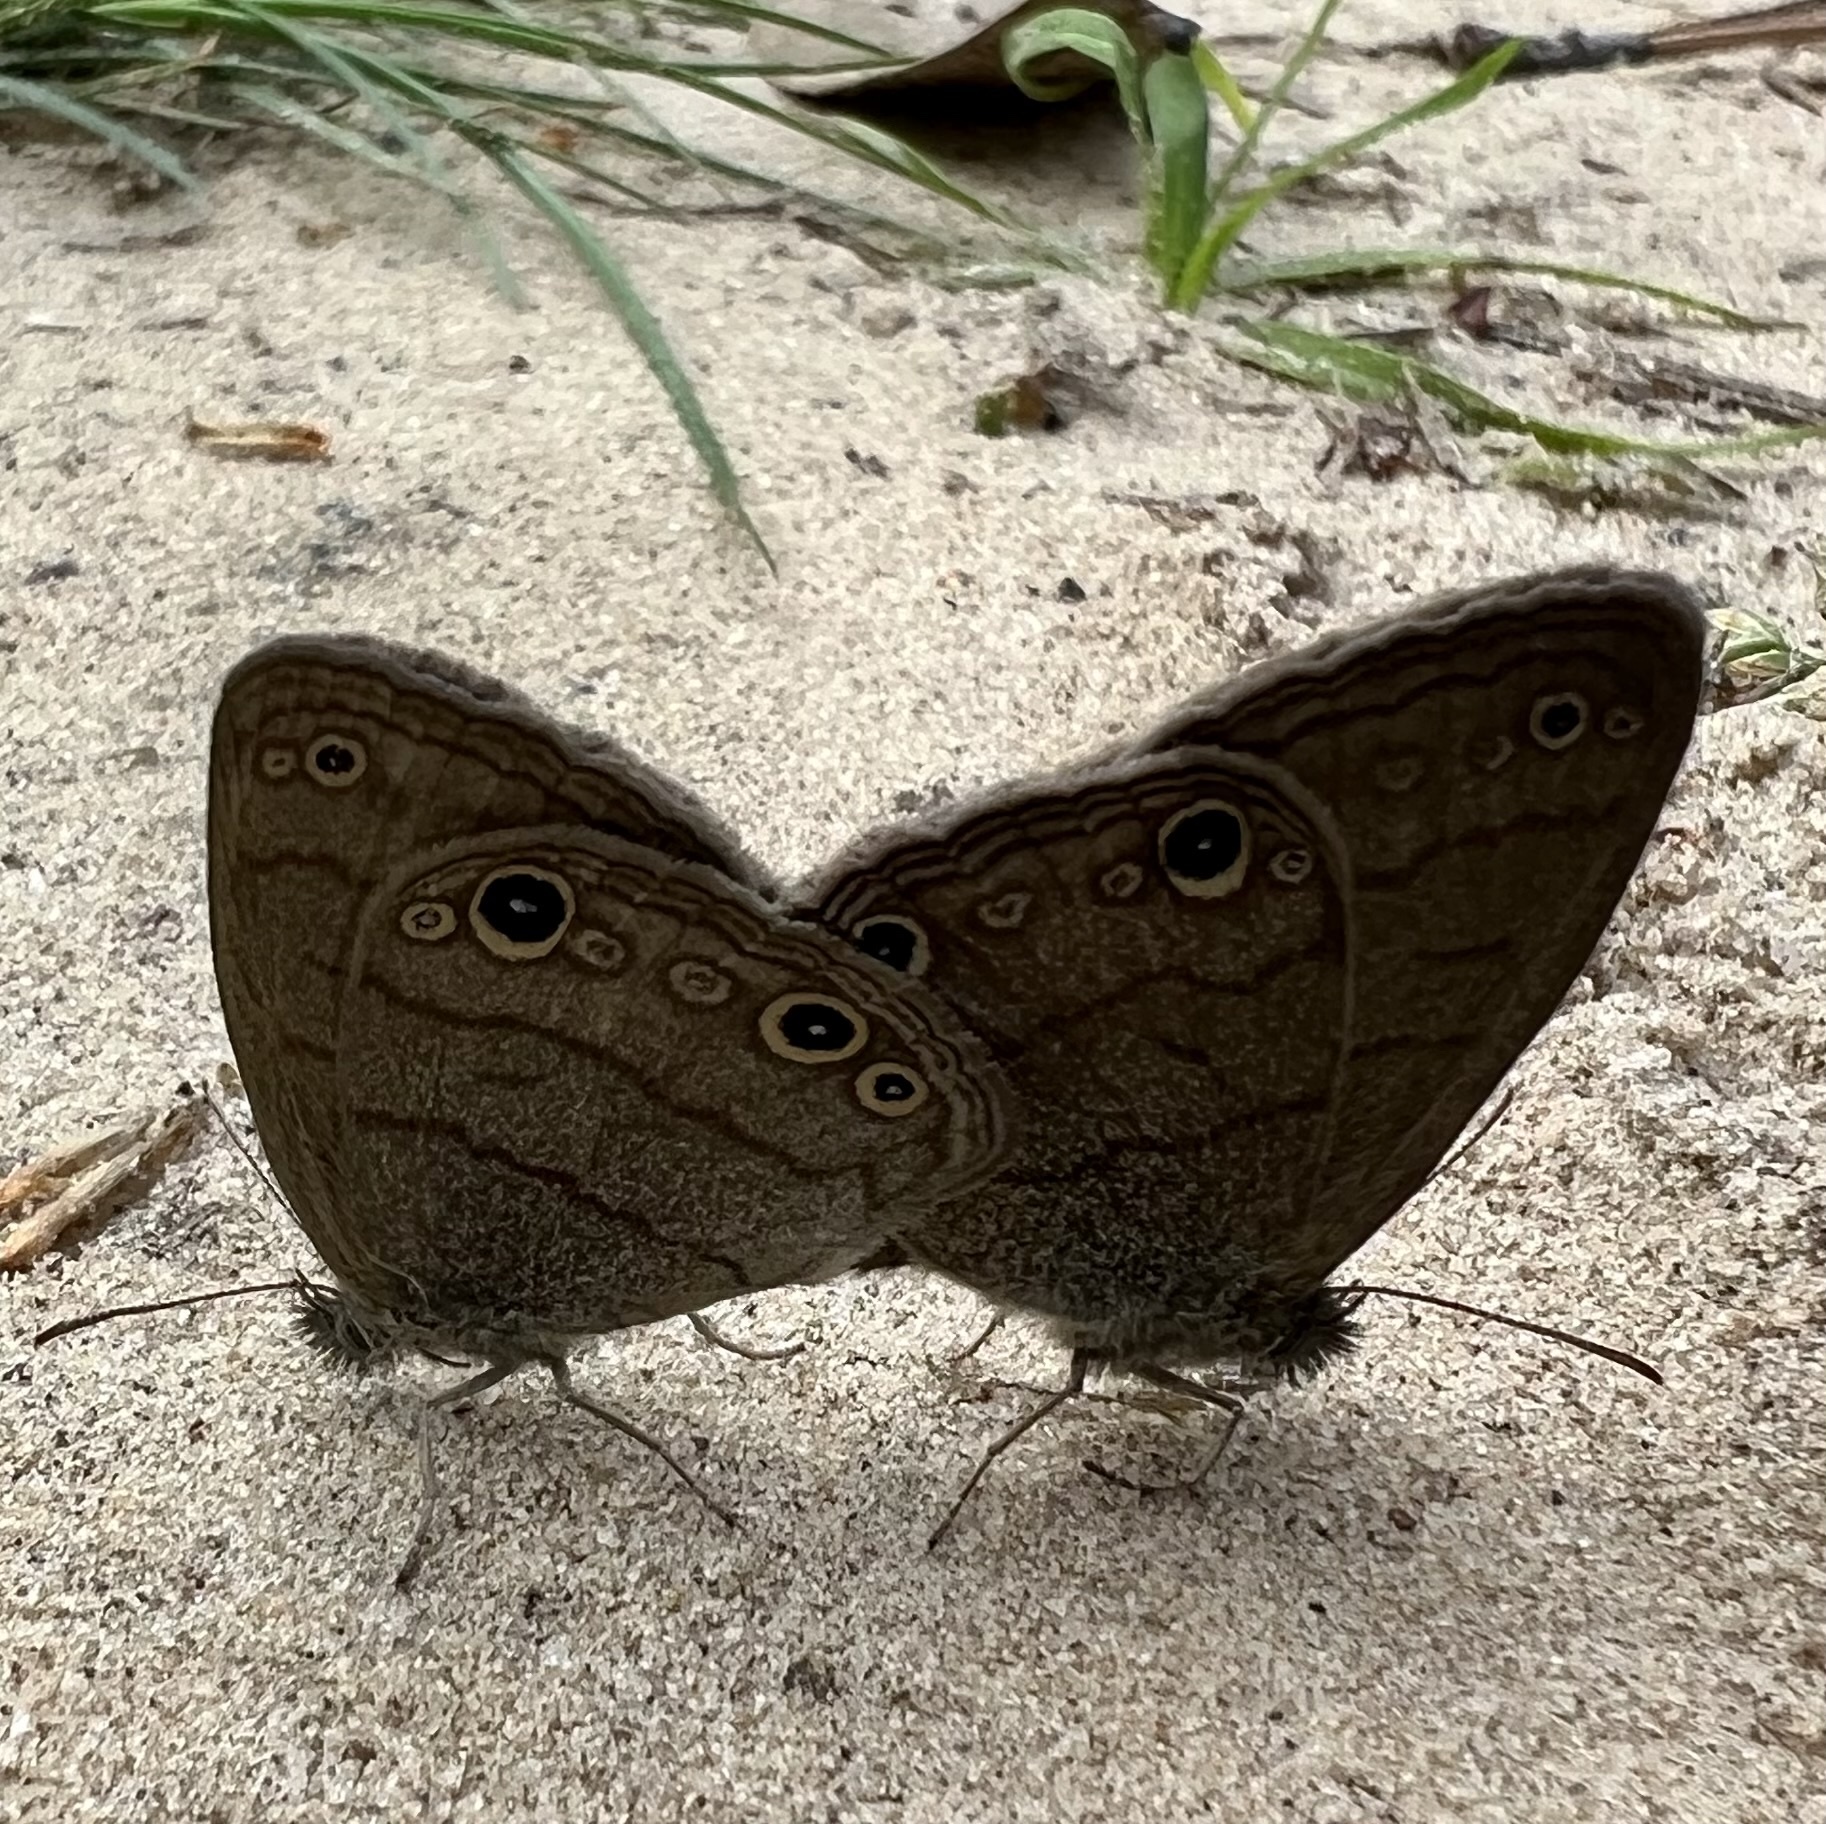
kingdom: Animalia
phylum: Arthropoda
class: Insecta
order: Lepidoptera
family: Nymphalidae
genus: Hermeuptychia
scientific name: Hermeuptychia hermes
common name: Hermes satyr
